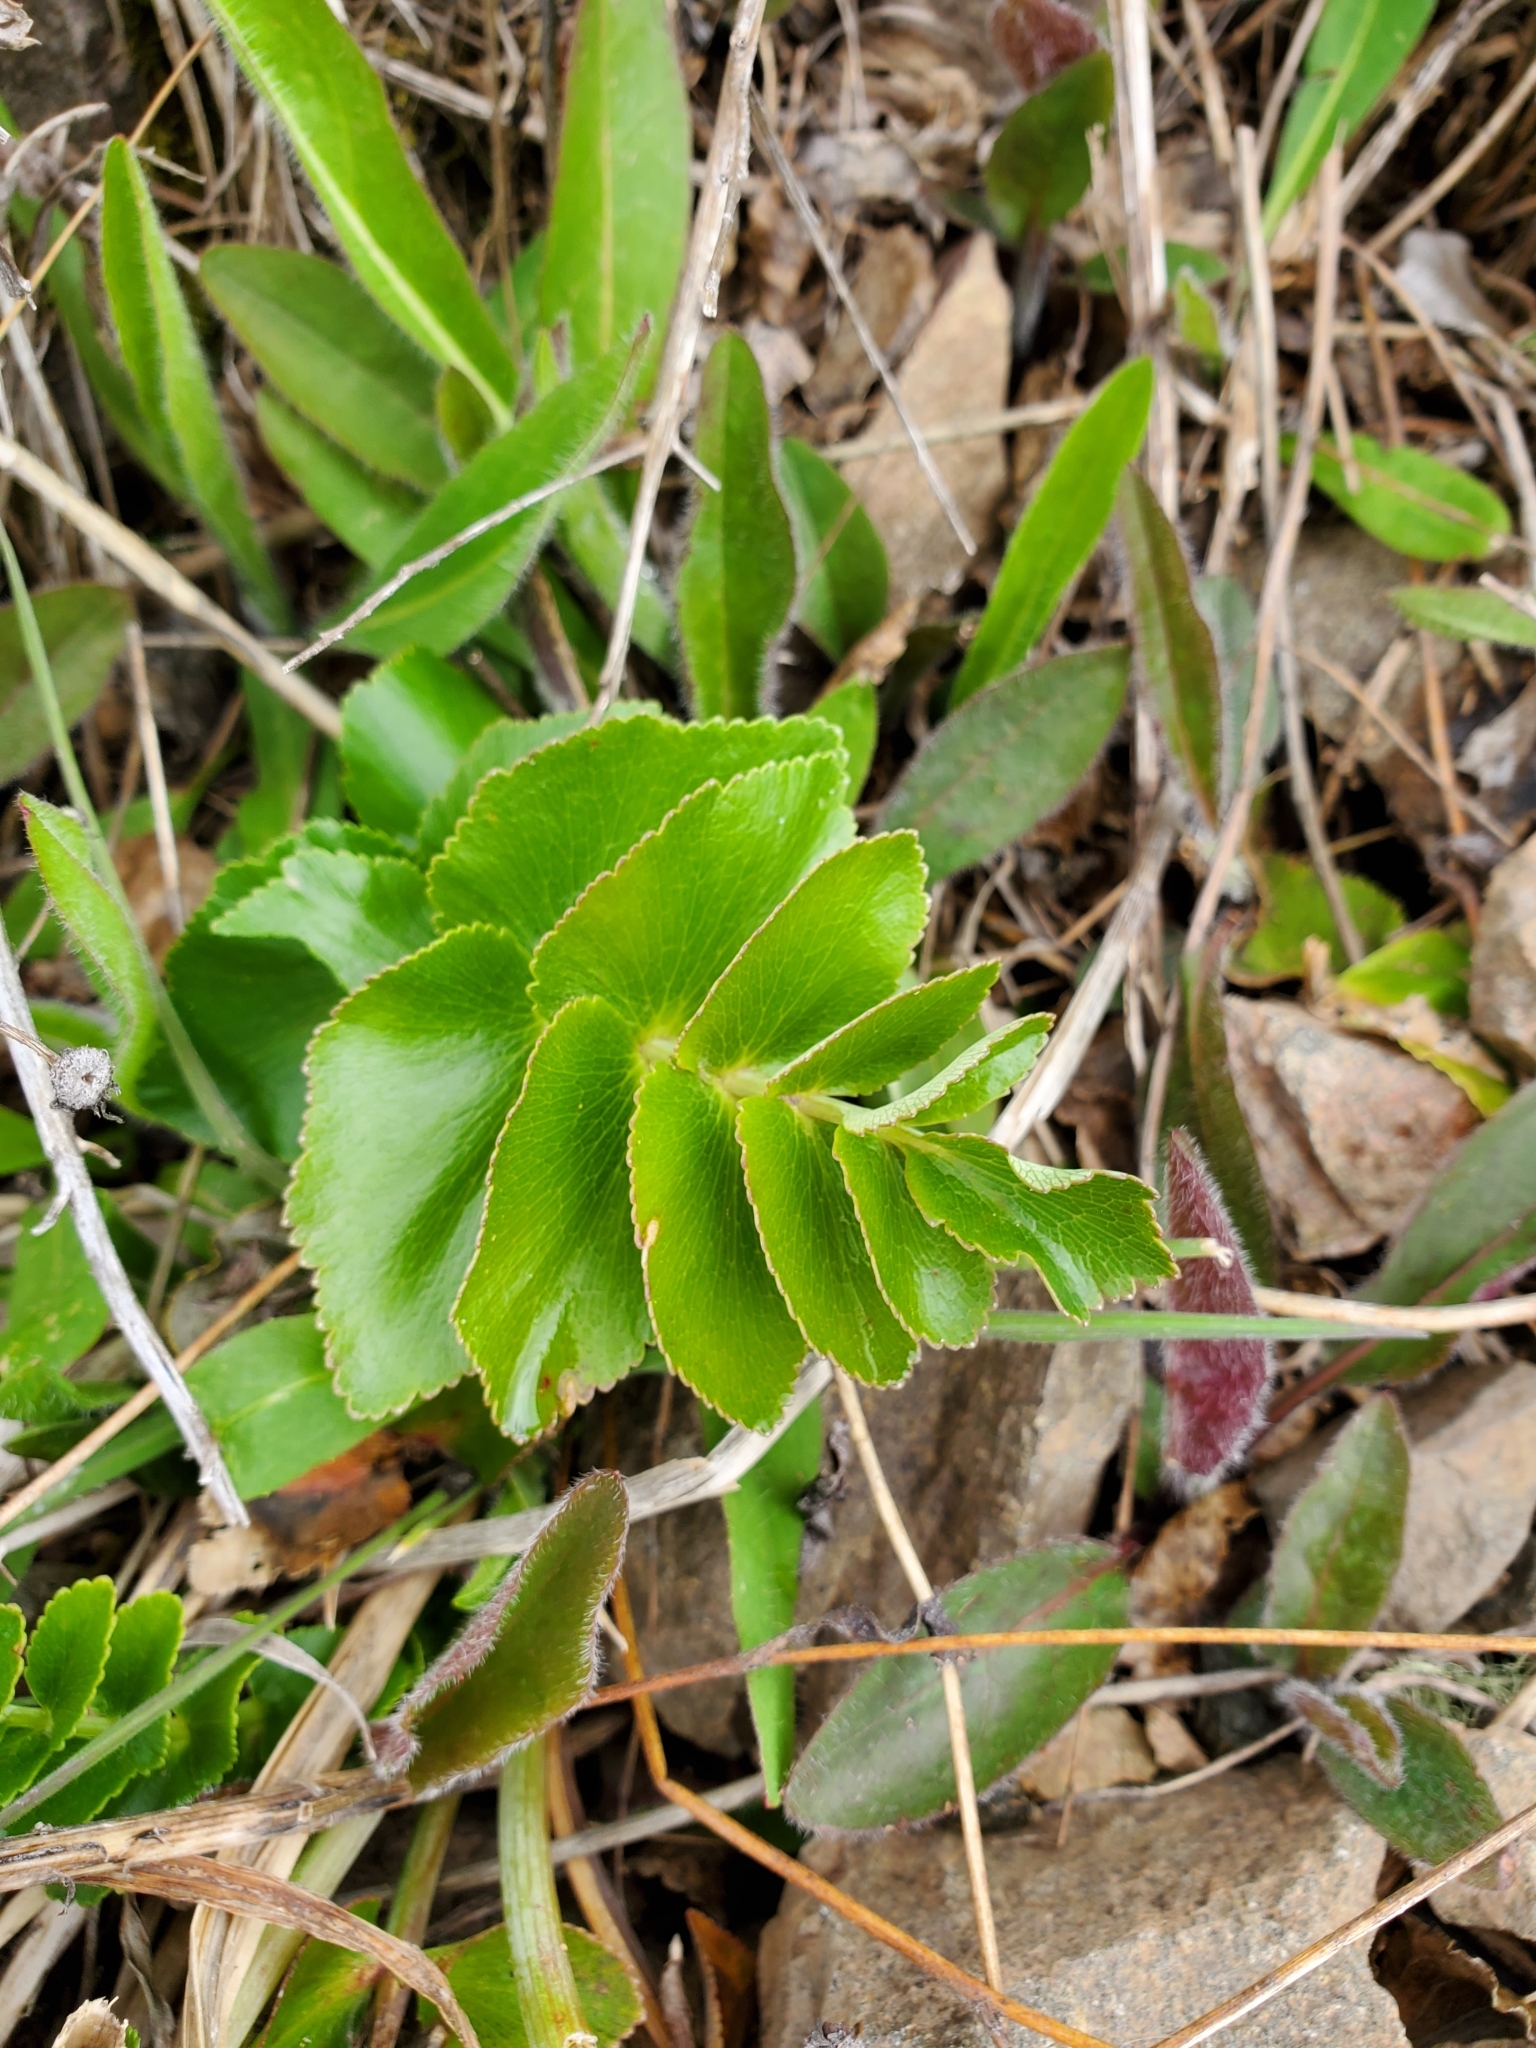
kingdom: Plantae
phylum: Tracheophyta
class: Magnoliopsida
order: Apiales
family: Apiaceae
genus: Gingidia
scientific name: Gingidia montana
